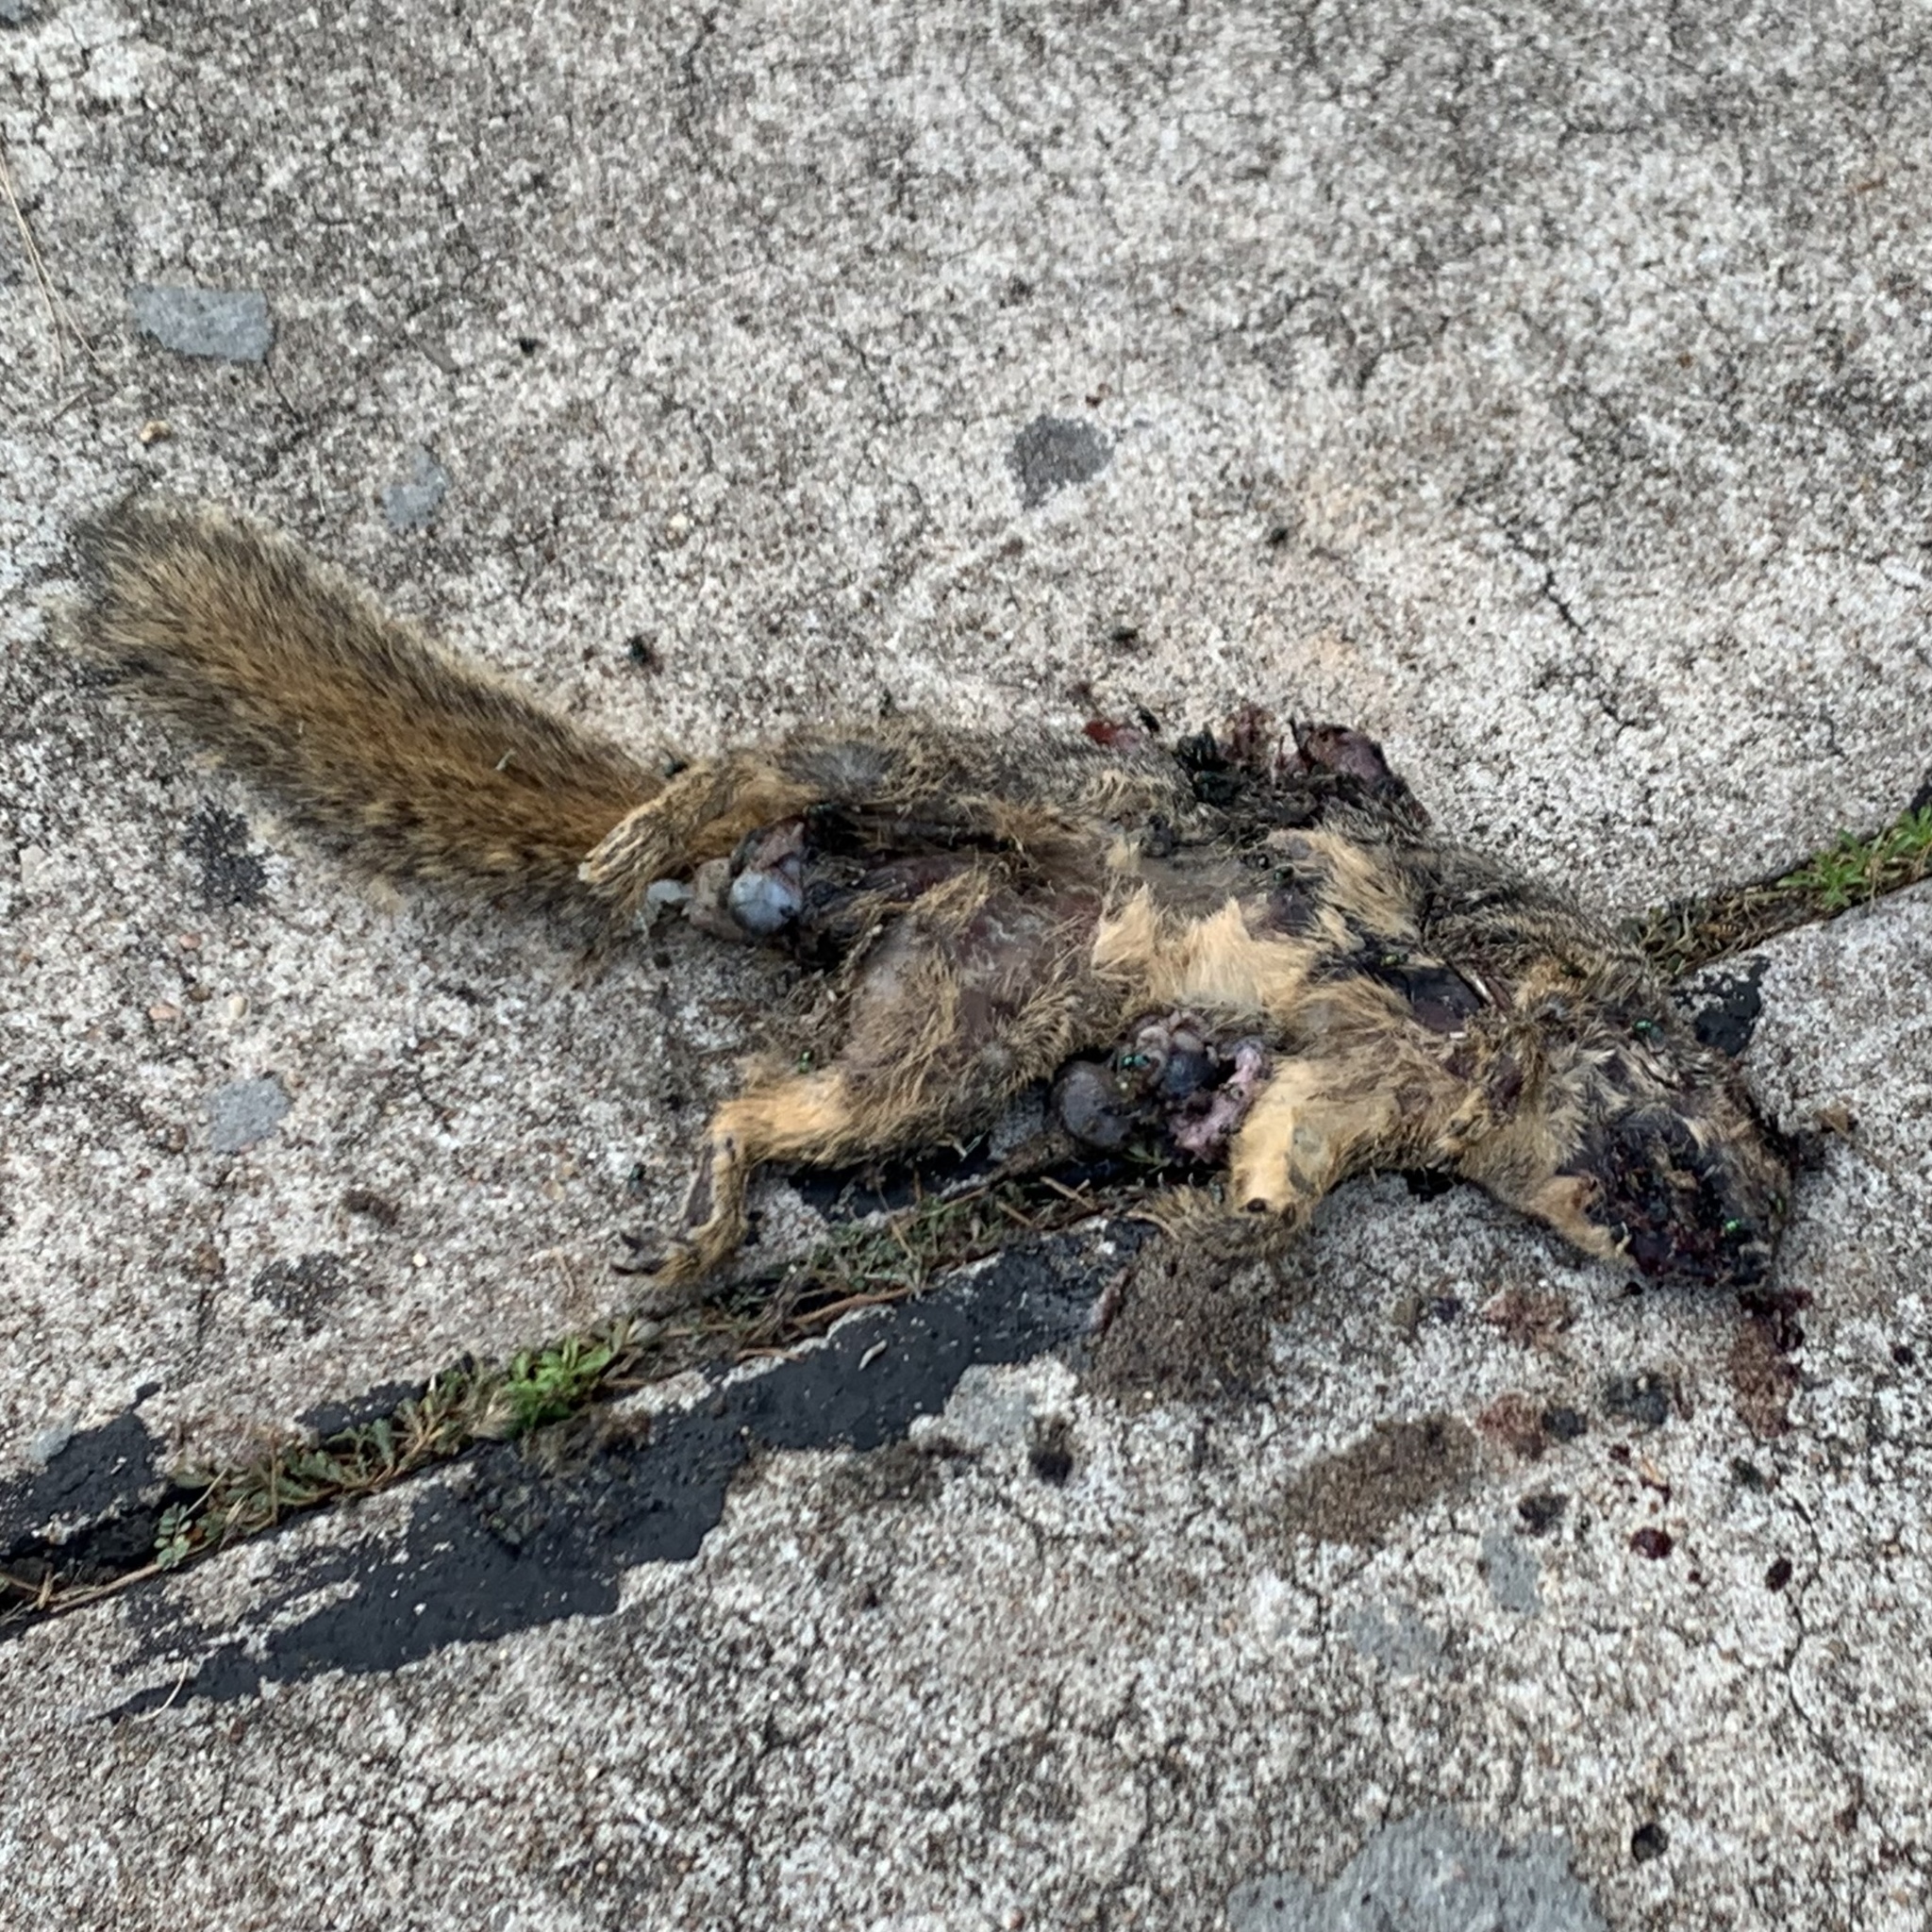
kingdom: Animalia
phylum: Chordata
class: Mammalia
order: Rodentia
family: Sciuridae
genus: Sciurus
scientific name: Sciurus niger
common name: Fox squirrel
